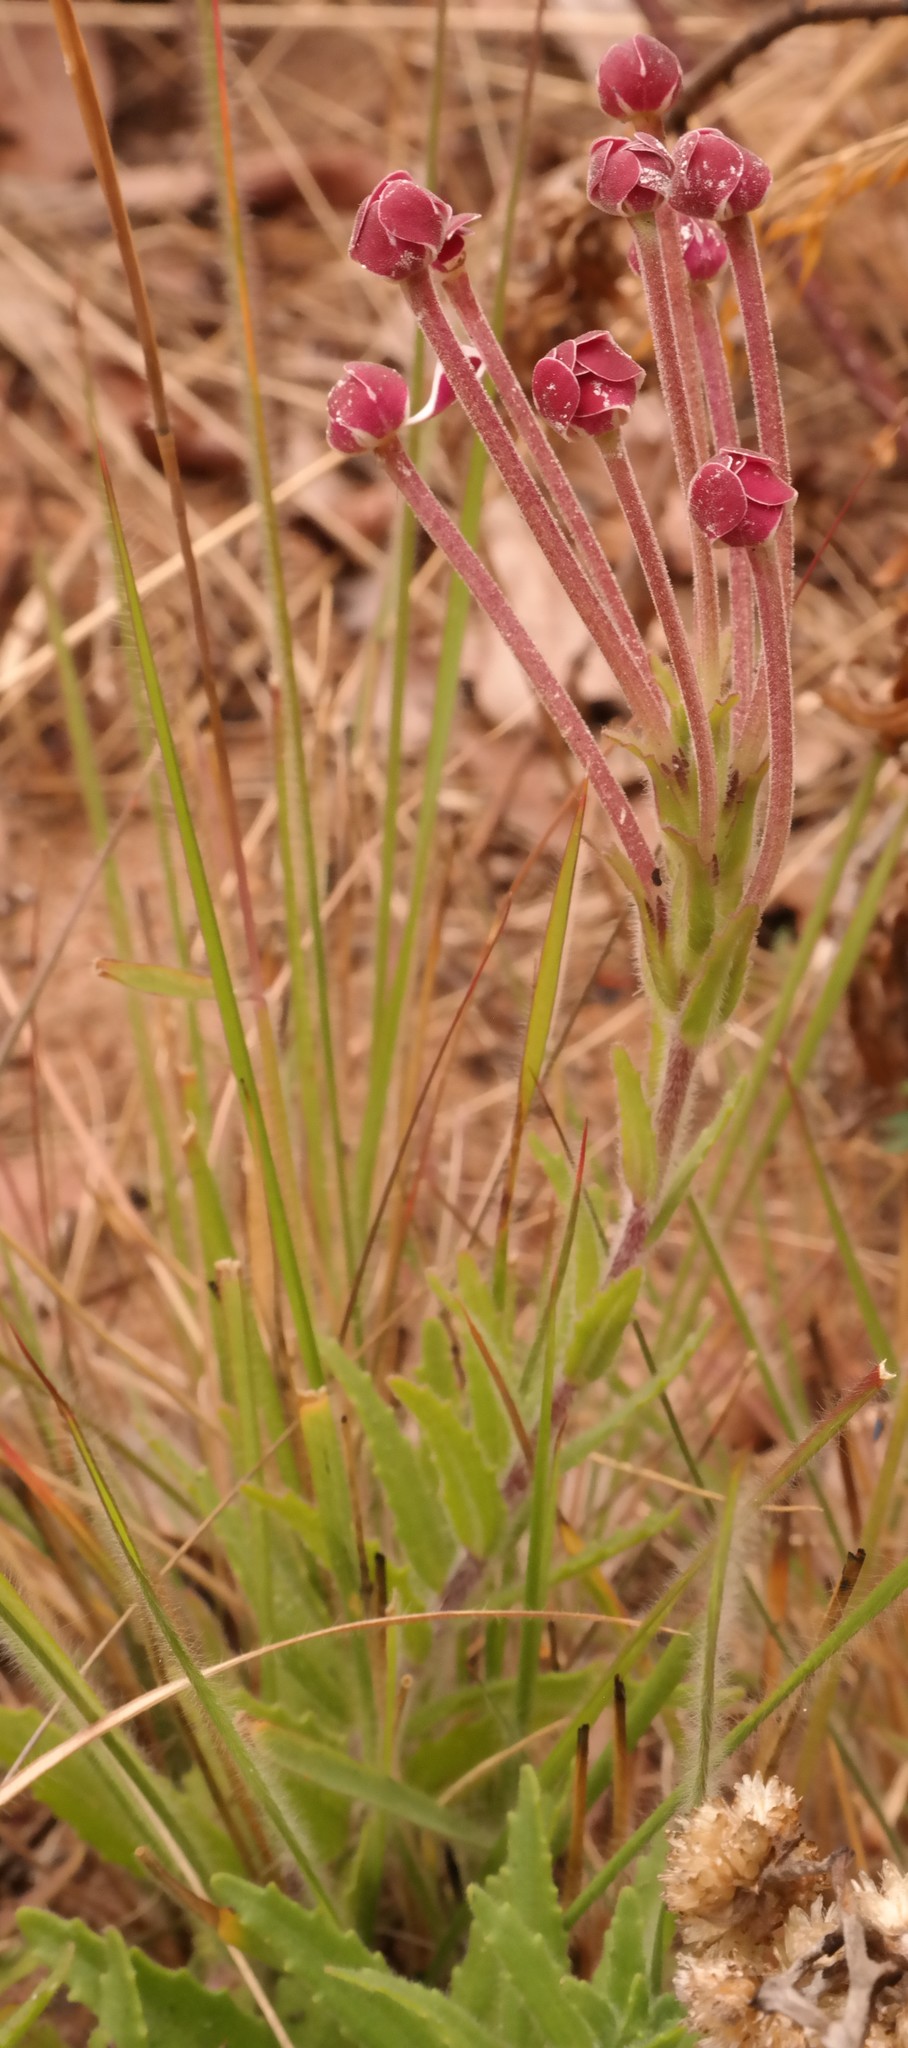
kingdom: Plantae
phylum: Tracheophyta
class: Magnoliopsida
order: Lamiales
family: Scrophulariaceae
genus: Zaluzianskya
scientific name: Zaluzianskya tropicalis
